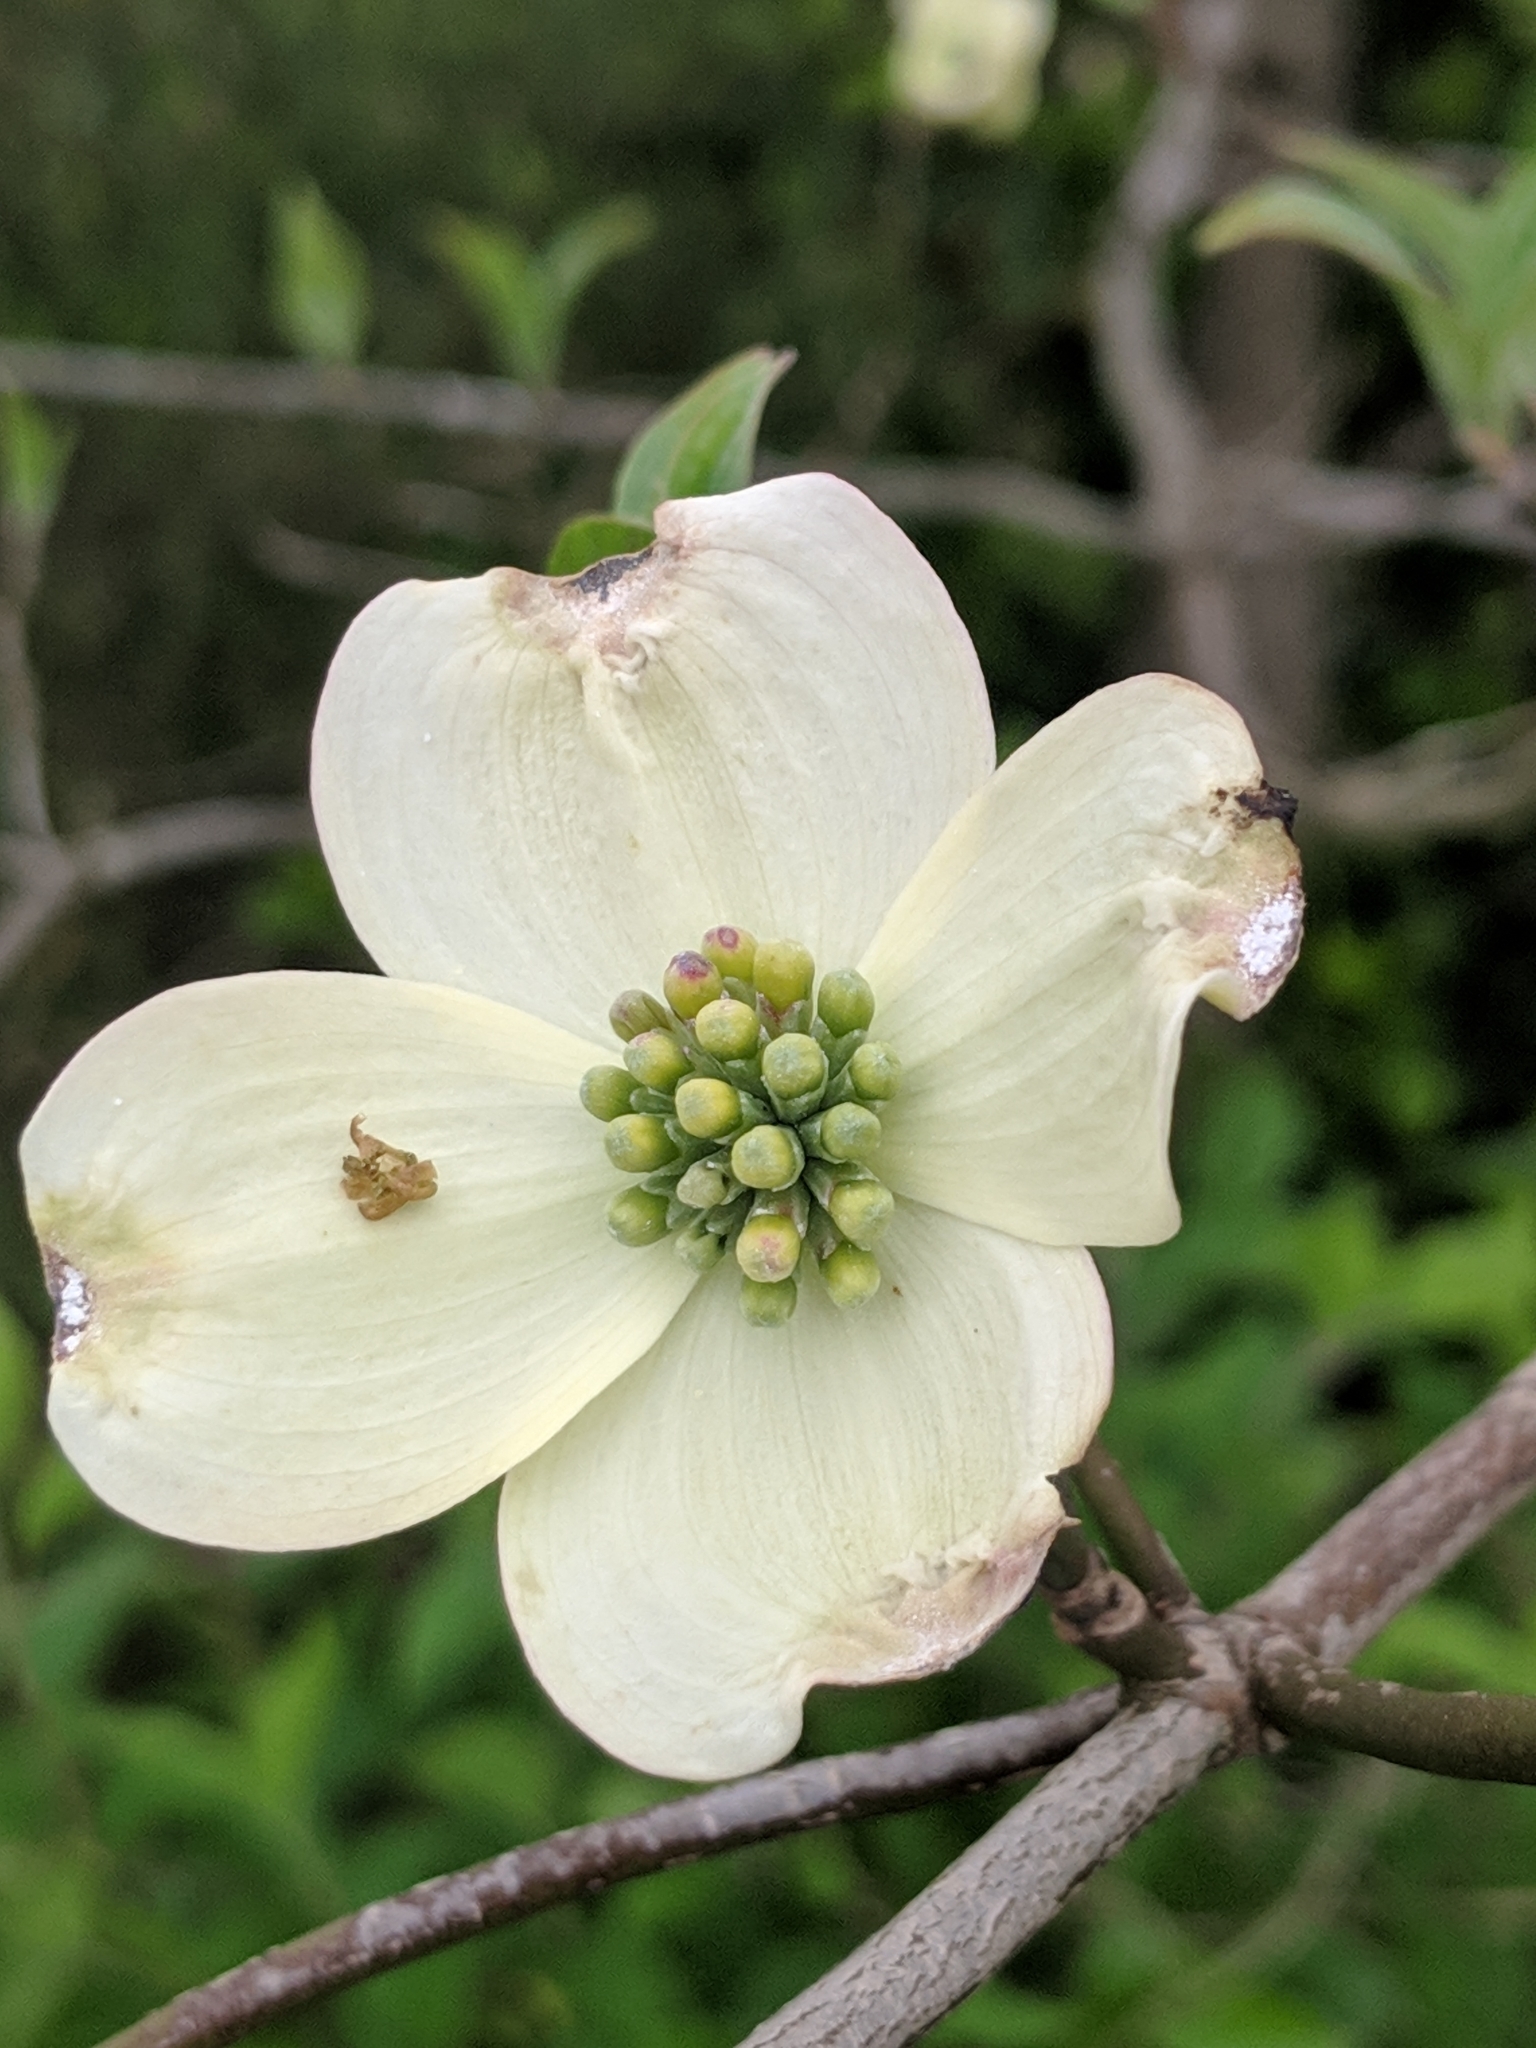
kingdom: Plantae
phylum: Tracheophyta
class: Magnoliopsida
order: Cornales
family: Cornaceae
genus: Cornus
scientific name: Cornus florida
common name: Flowering dogwood
